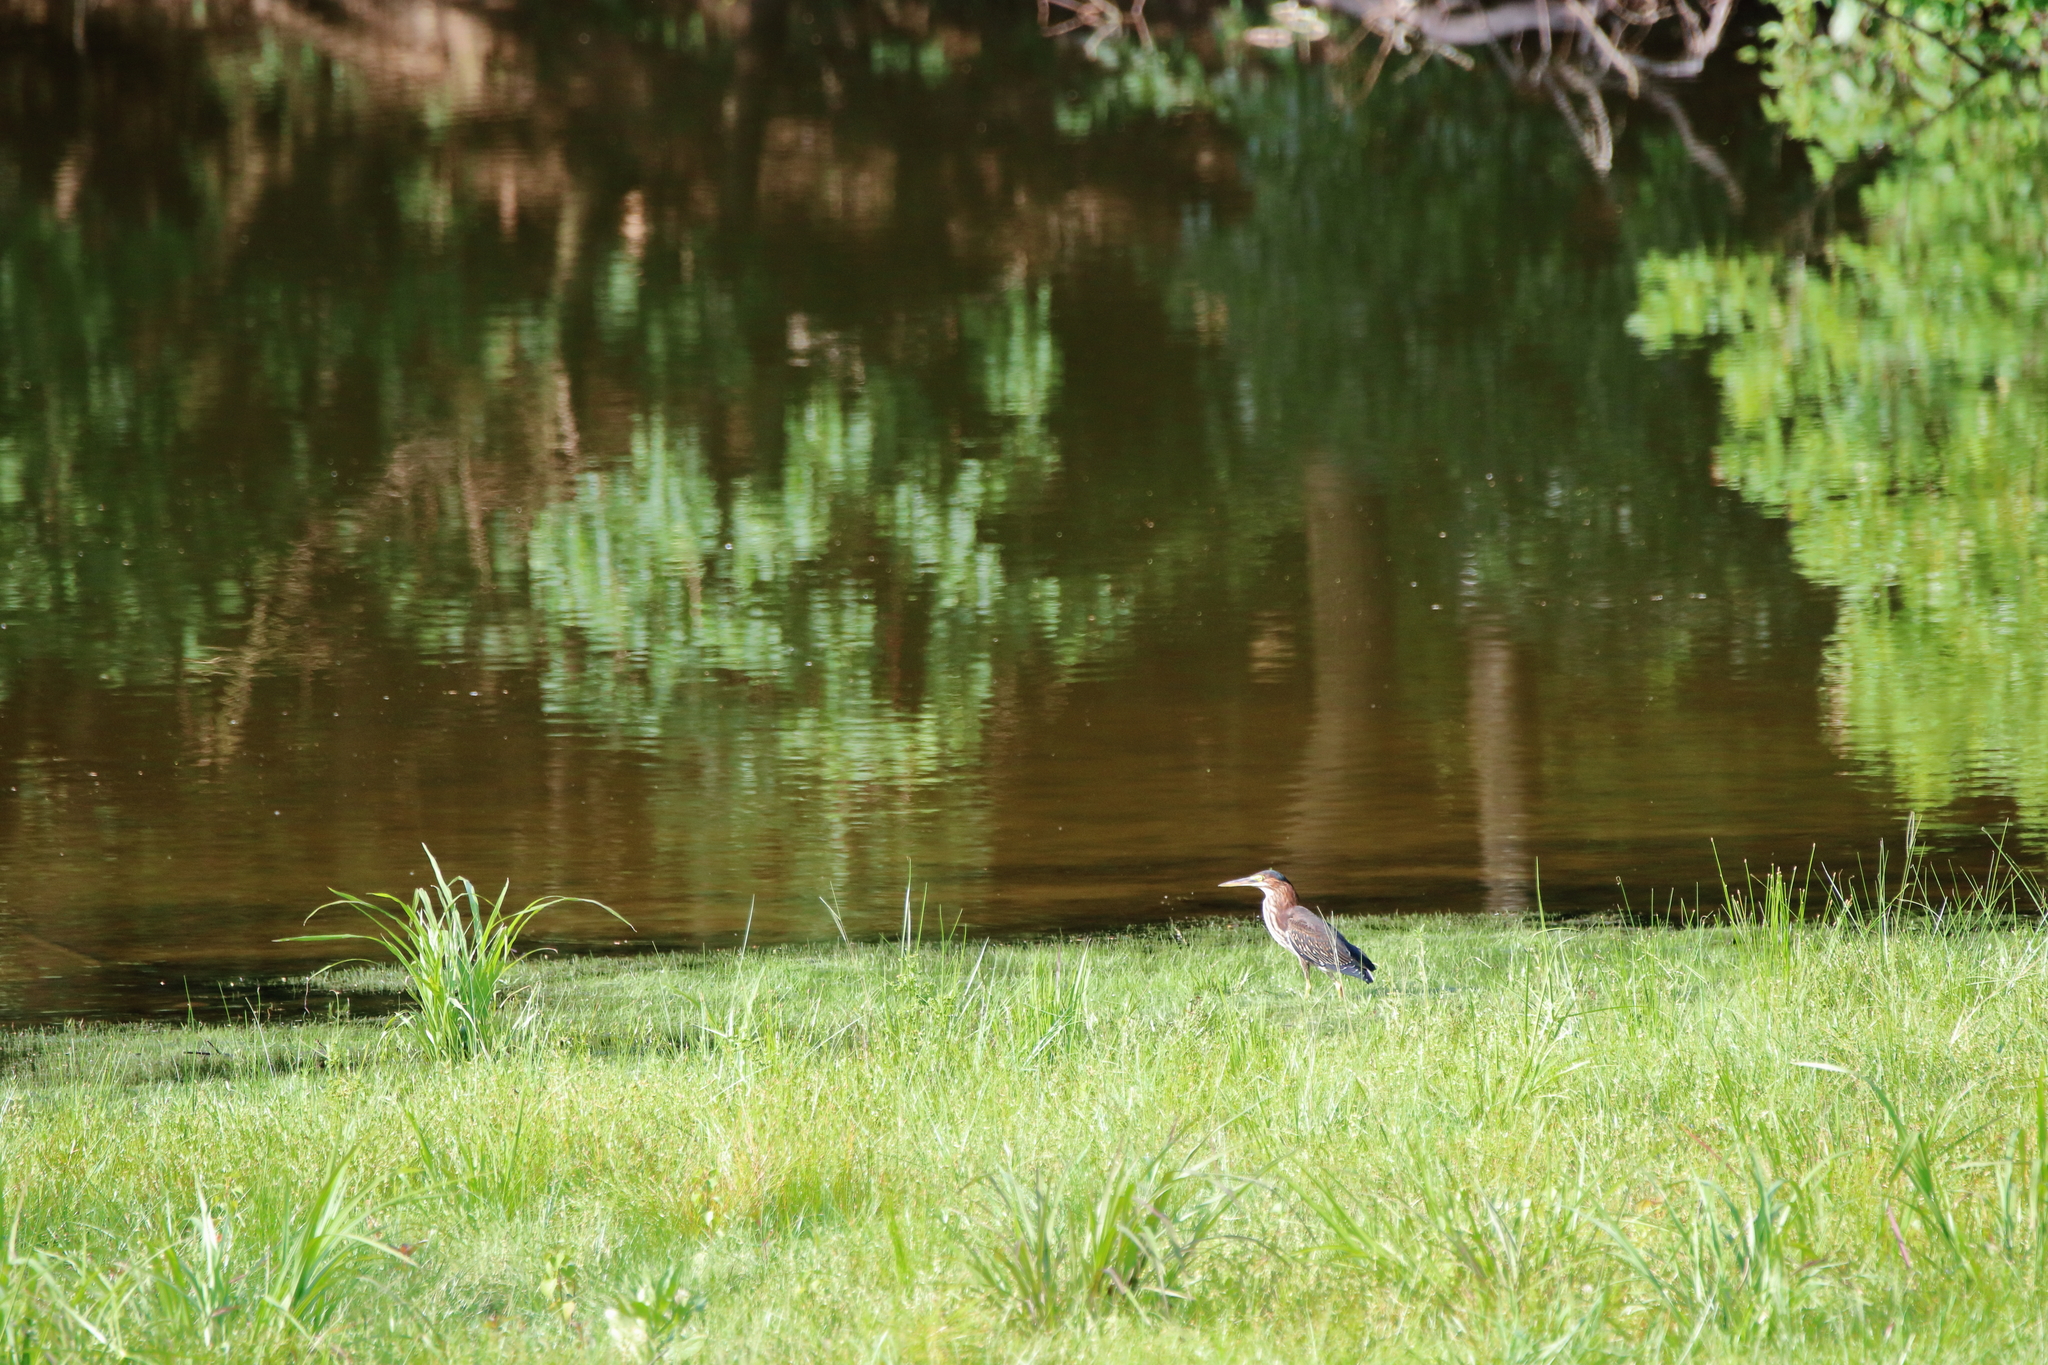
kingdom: Animalia
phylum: Chordata
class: Aves
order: Pelecaniformes
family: Ardeidae
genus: Butorides
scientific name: Butorides virescens
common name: Green heron
